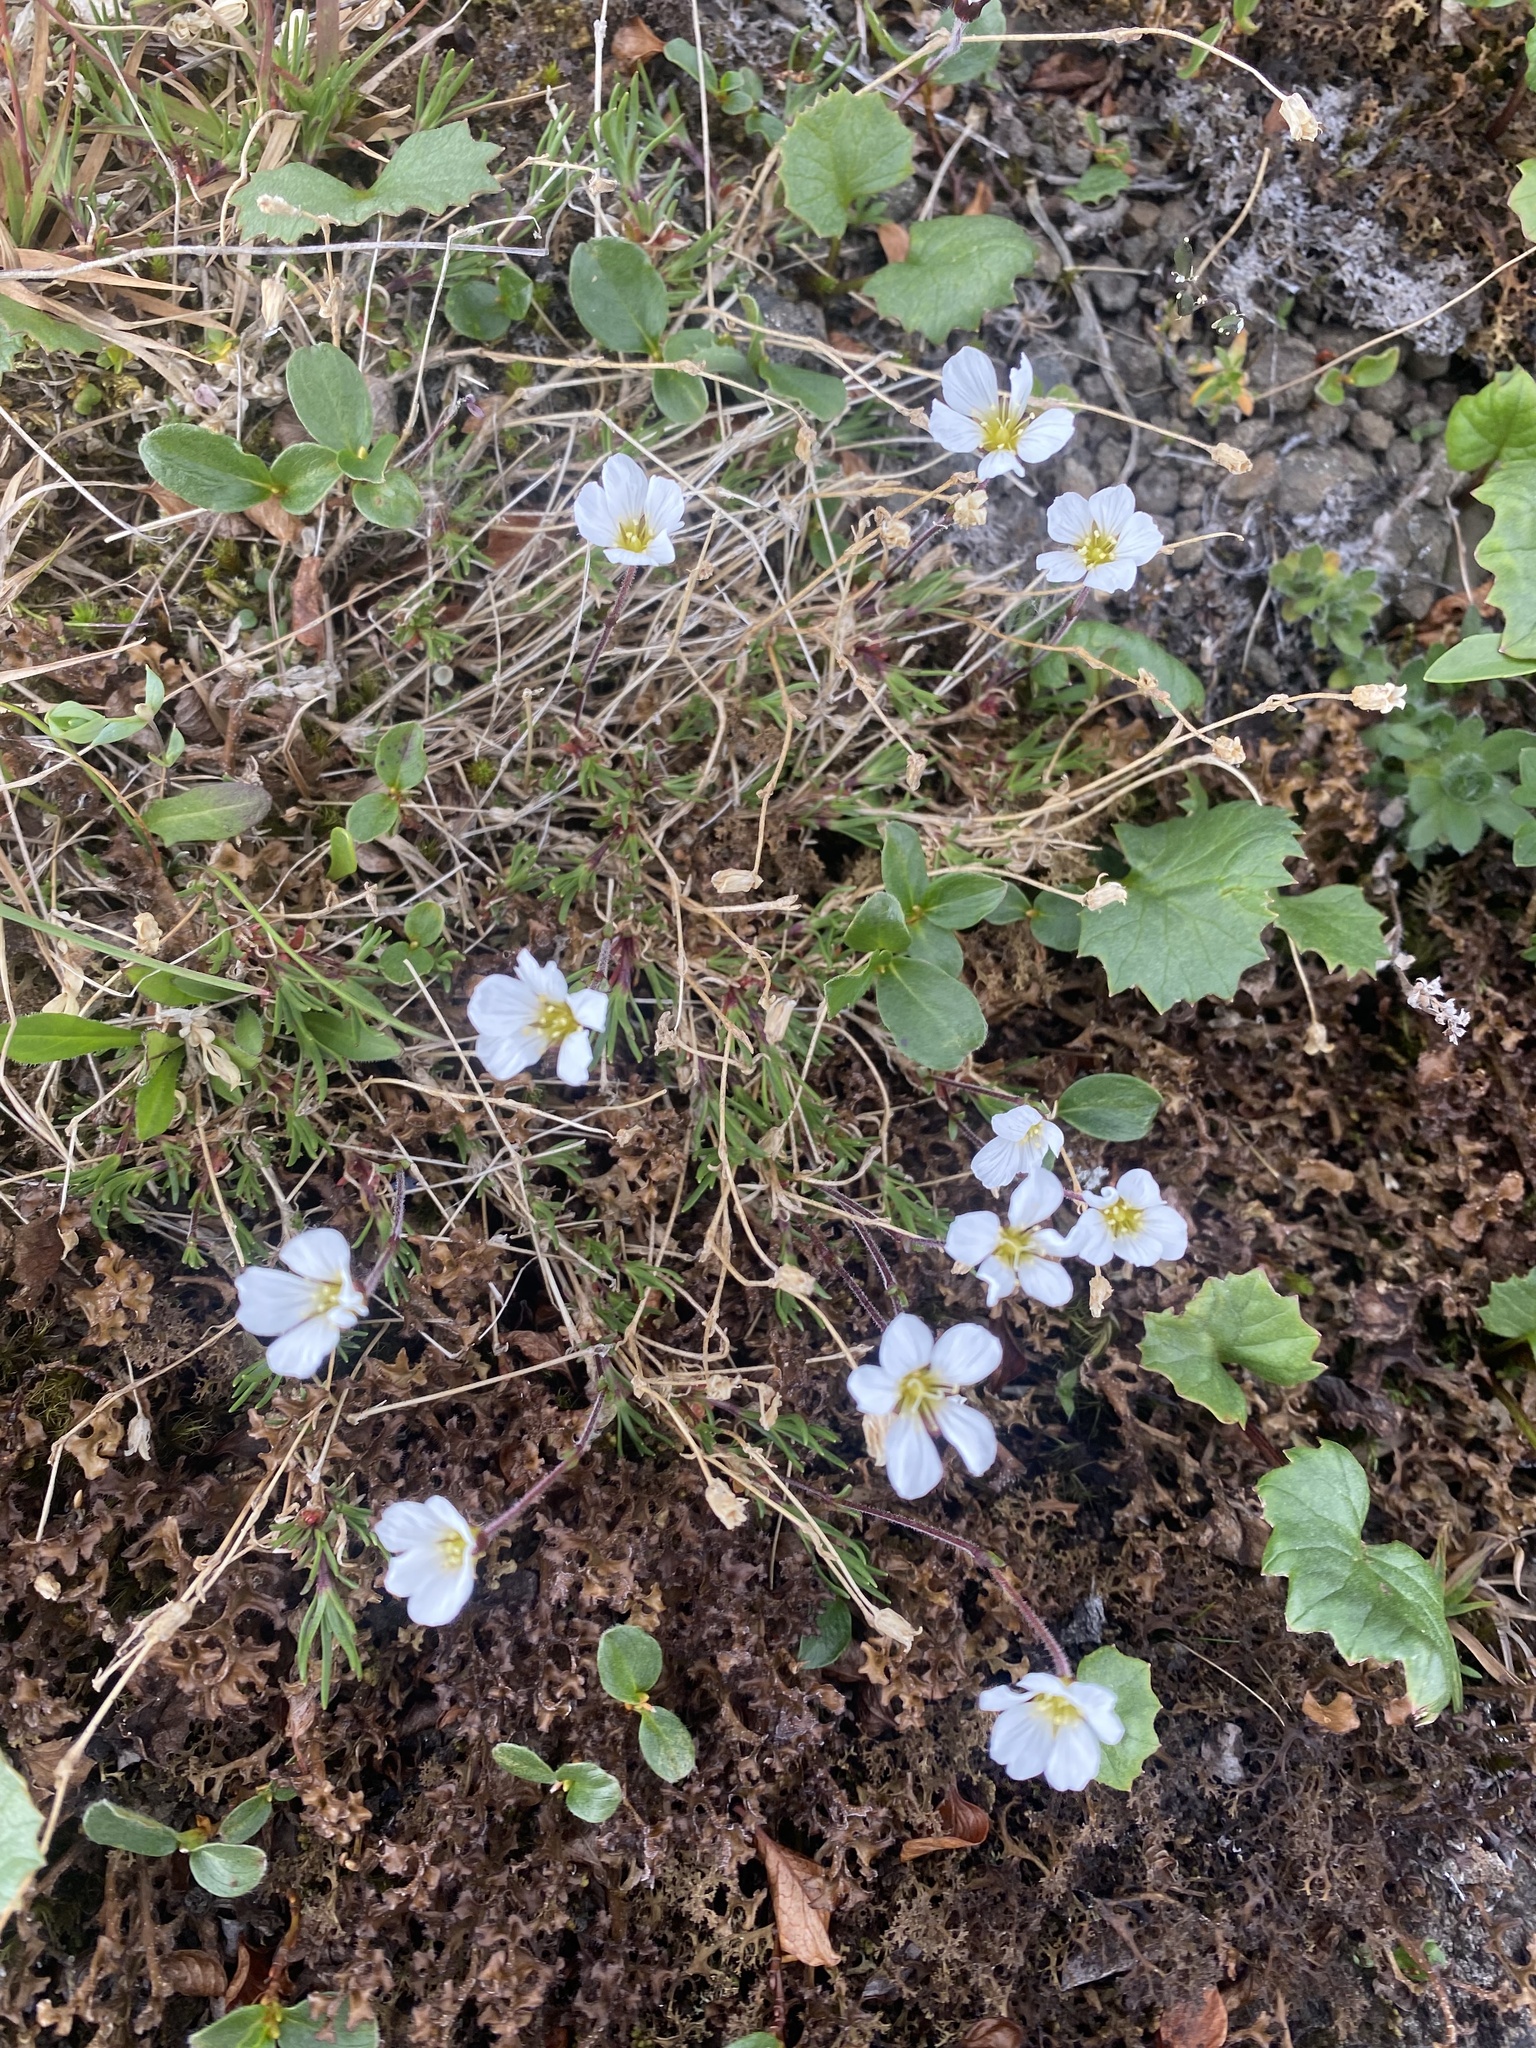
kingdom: Plantae
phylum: Tracheophyta
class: Magnoliopsida
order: Caryophyllales
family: Caryophyllaceae
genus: Cherleria
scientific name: Cherleria arctica
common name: Arctic sandwort
